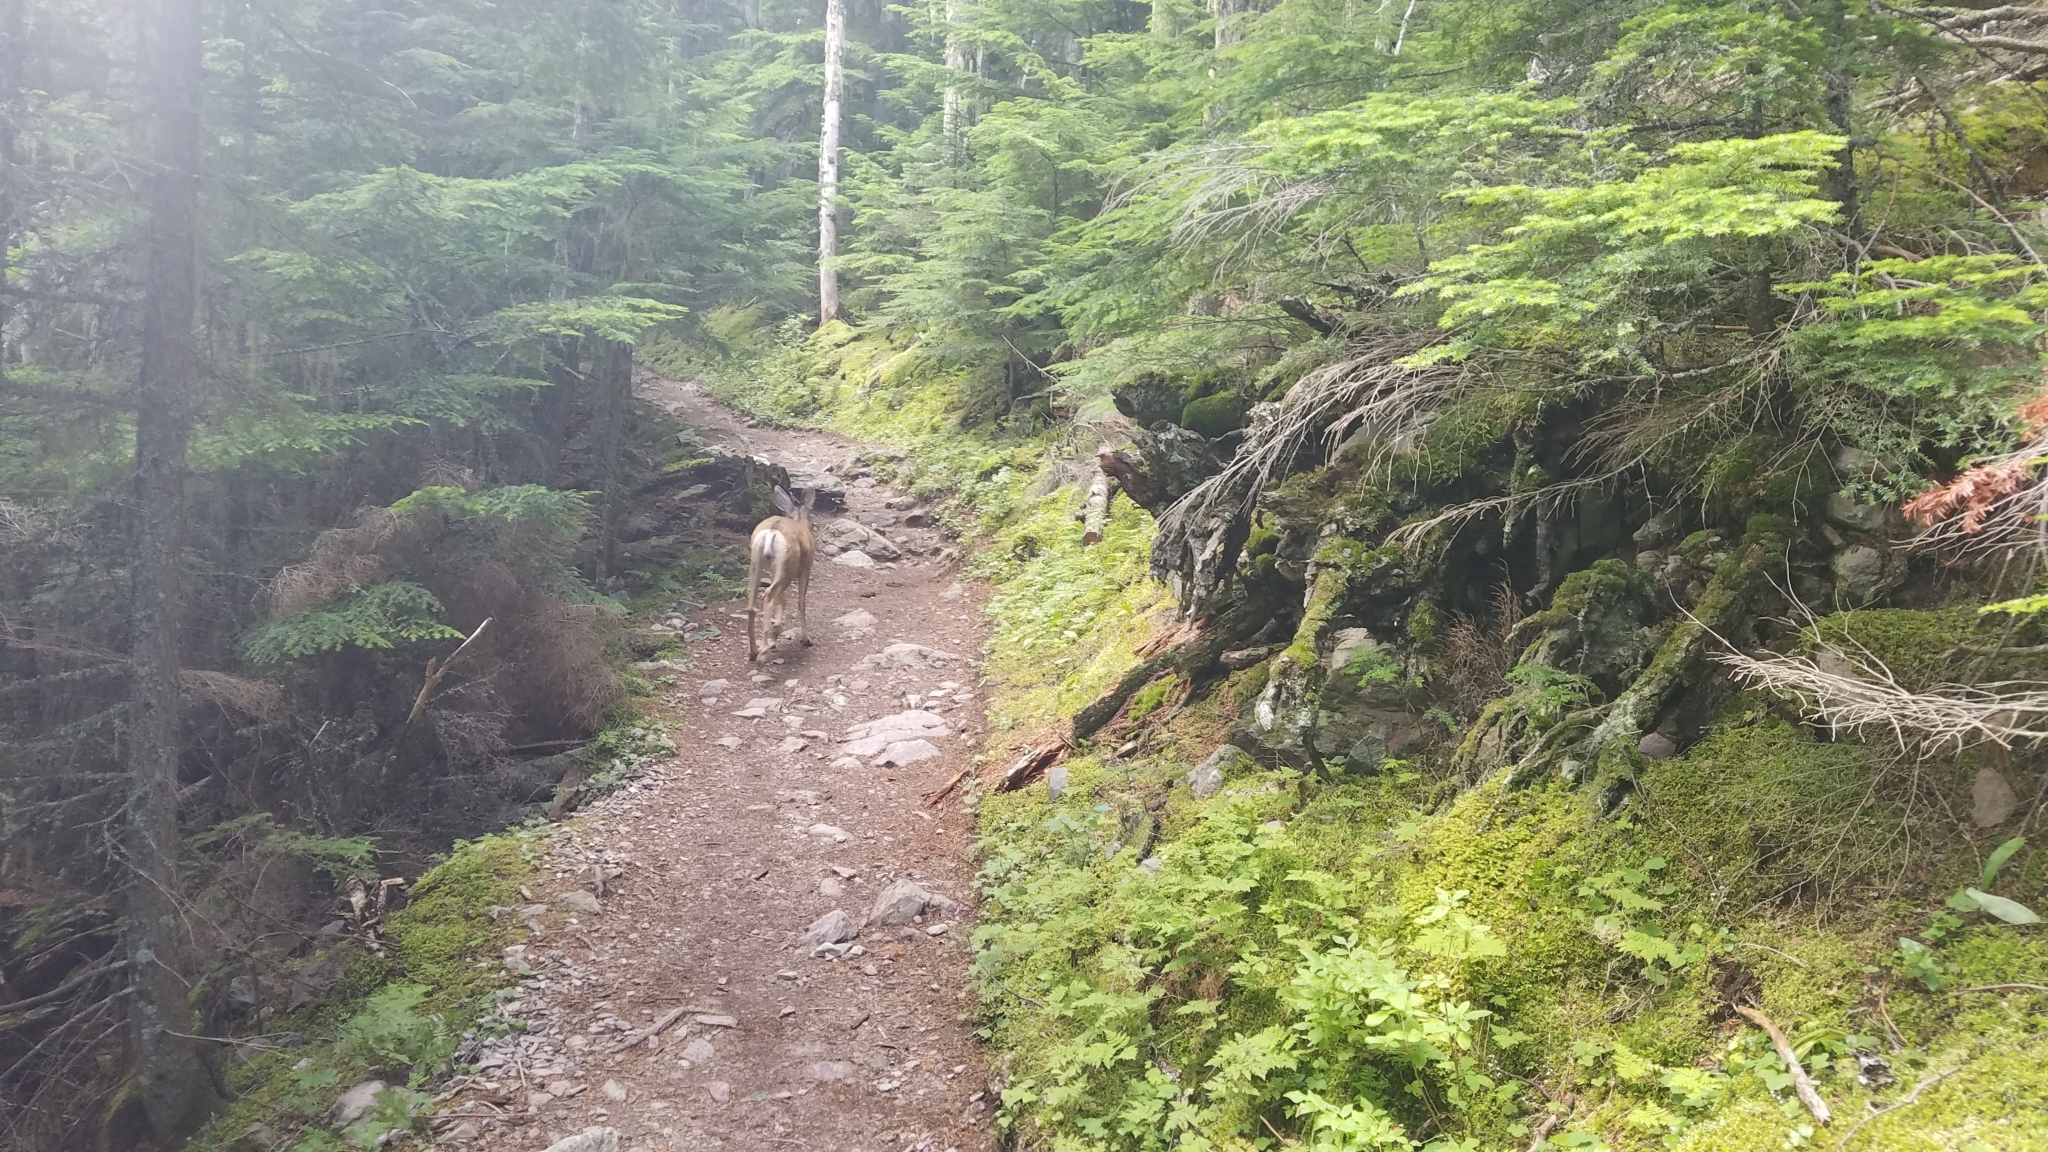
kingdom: Animalia
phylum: Chordata
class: Mammalia
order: Artiodactyla
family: Cervidae
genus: Odocoileus
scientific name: Odocoileus hemionus
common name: Mule deer
